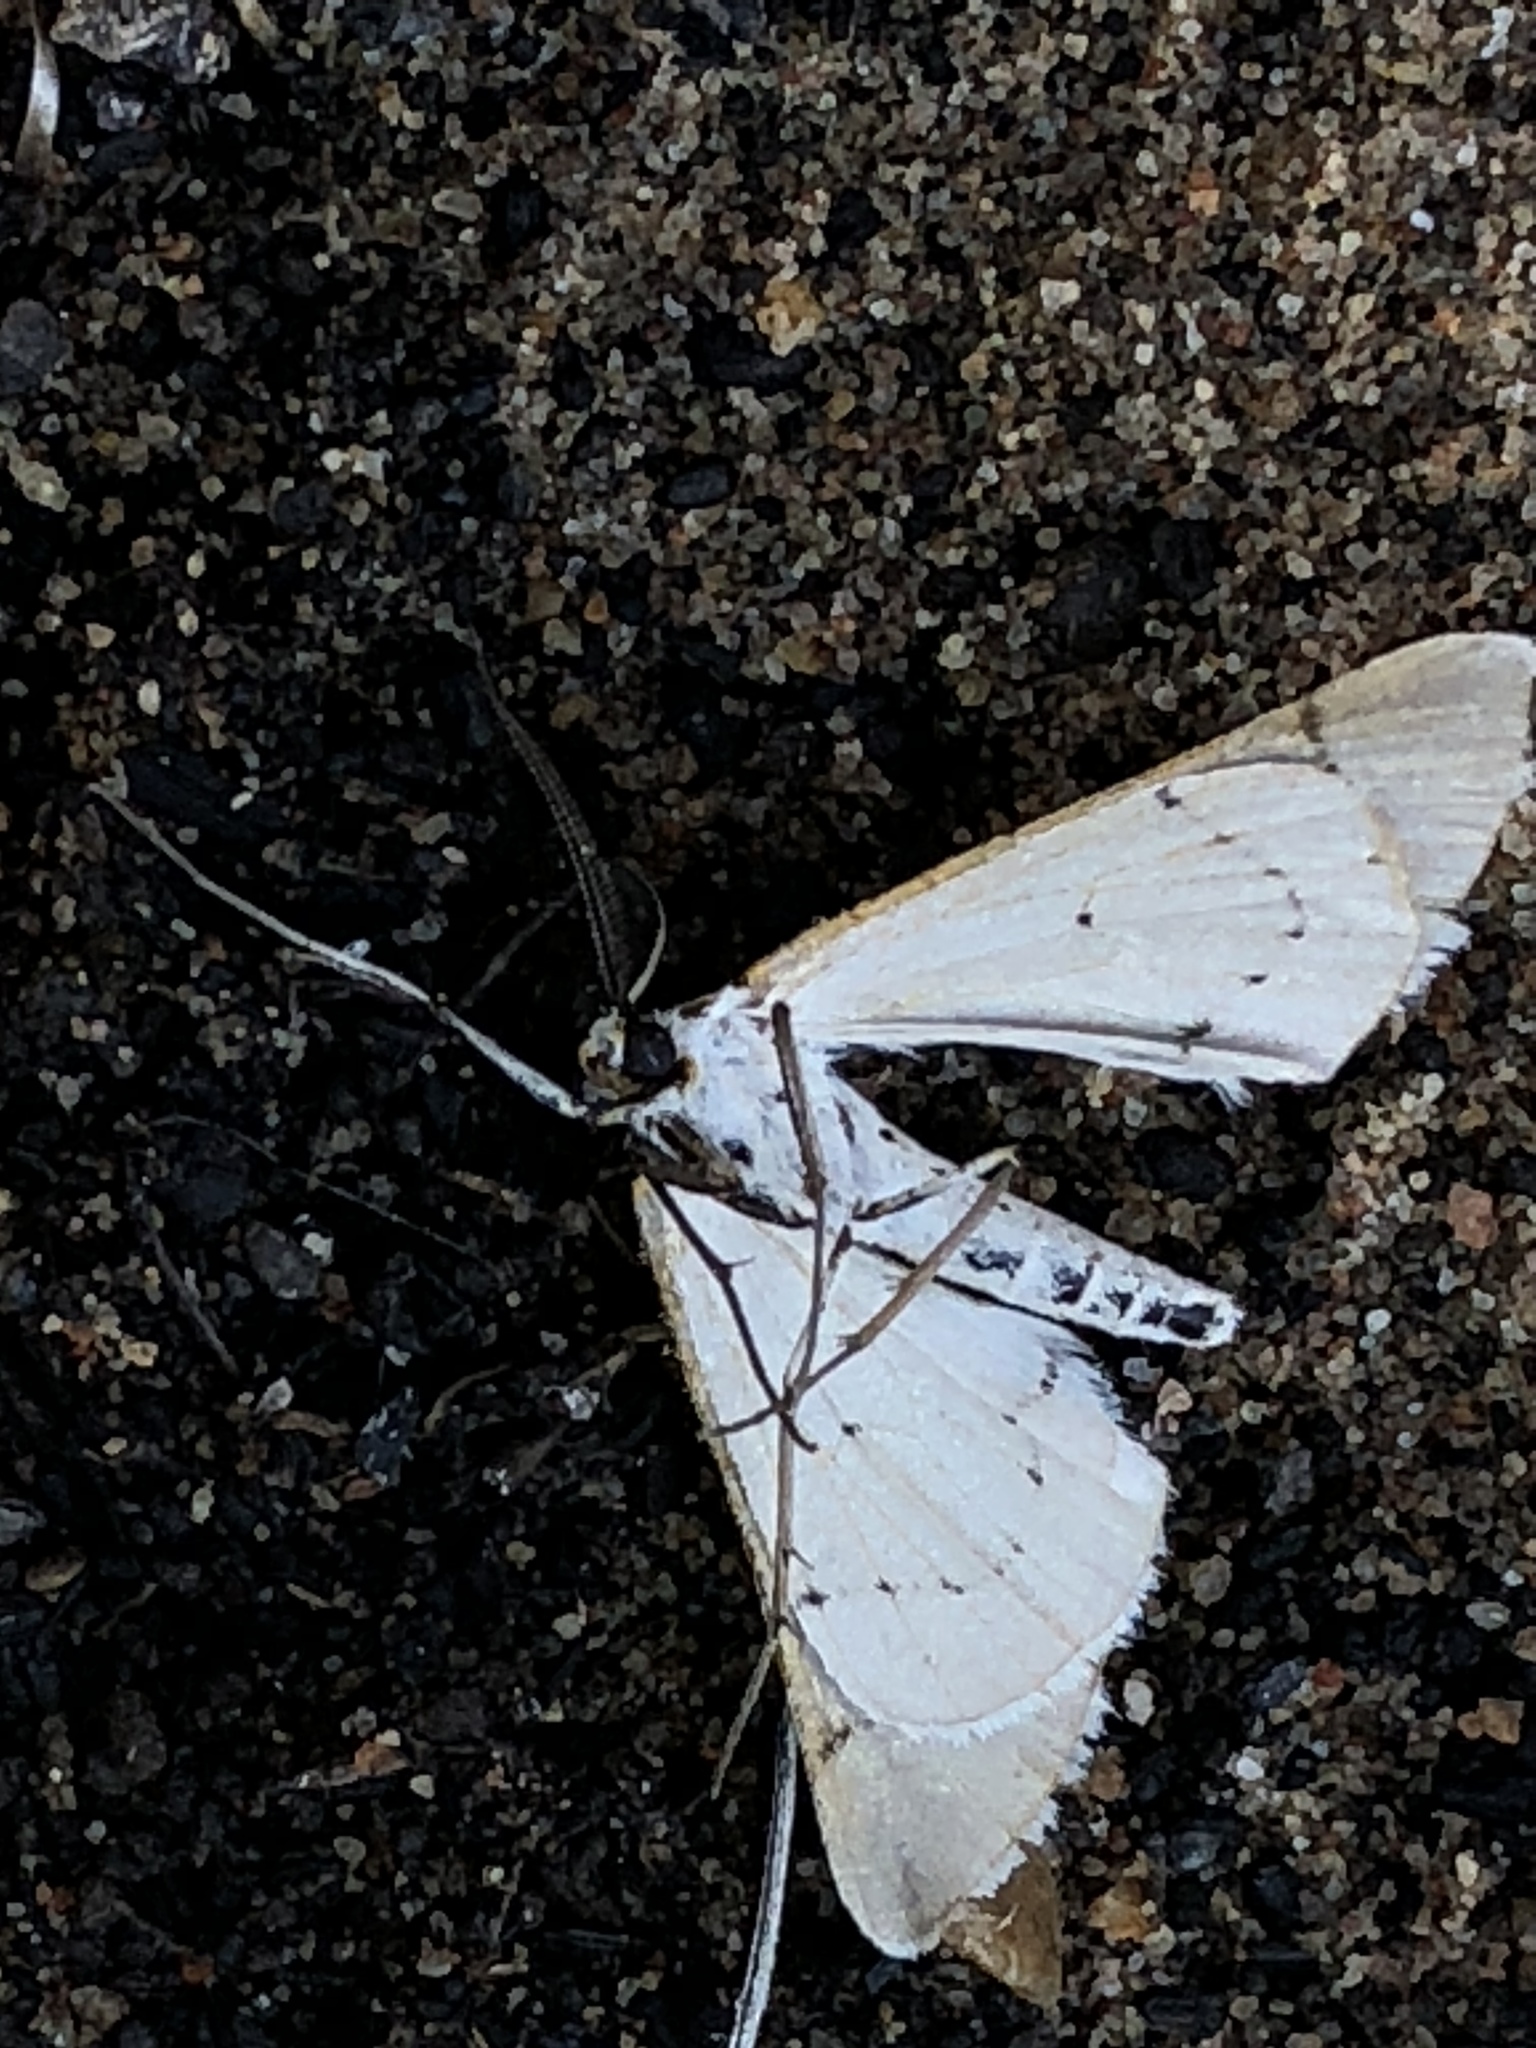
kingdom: Animalia
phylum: Arthropoda
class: Insecta
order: Lepidoptera
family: Geometridae
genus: Nassinia
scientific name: Nassinia caffraria
